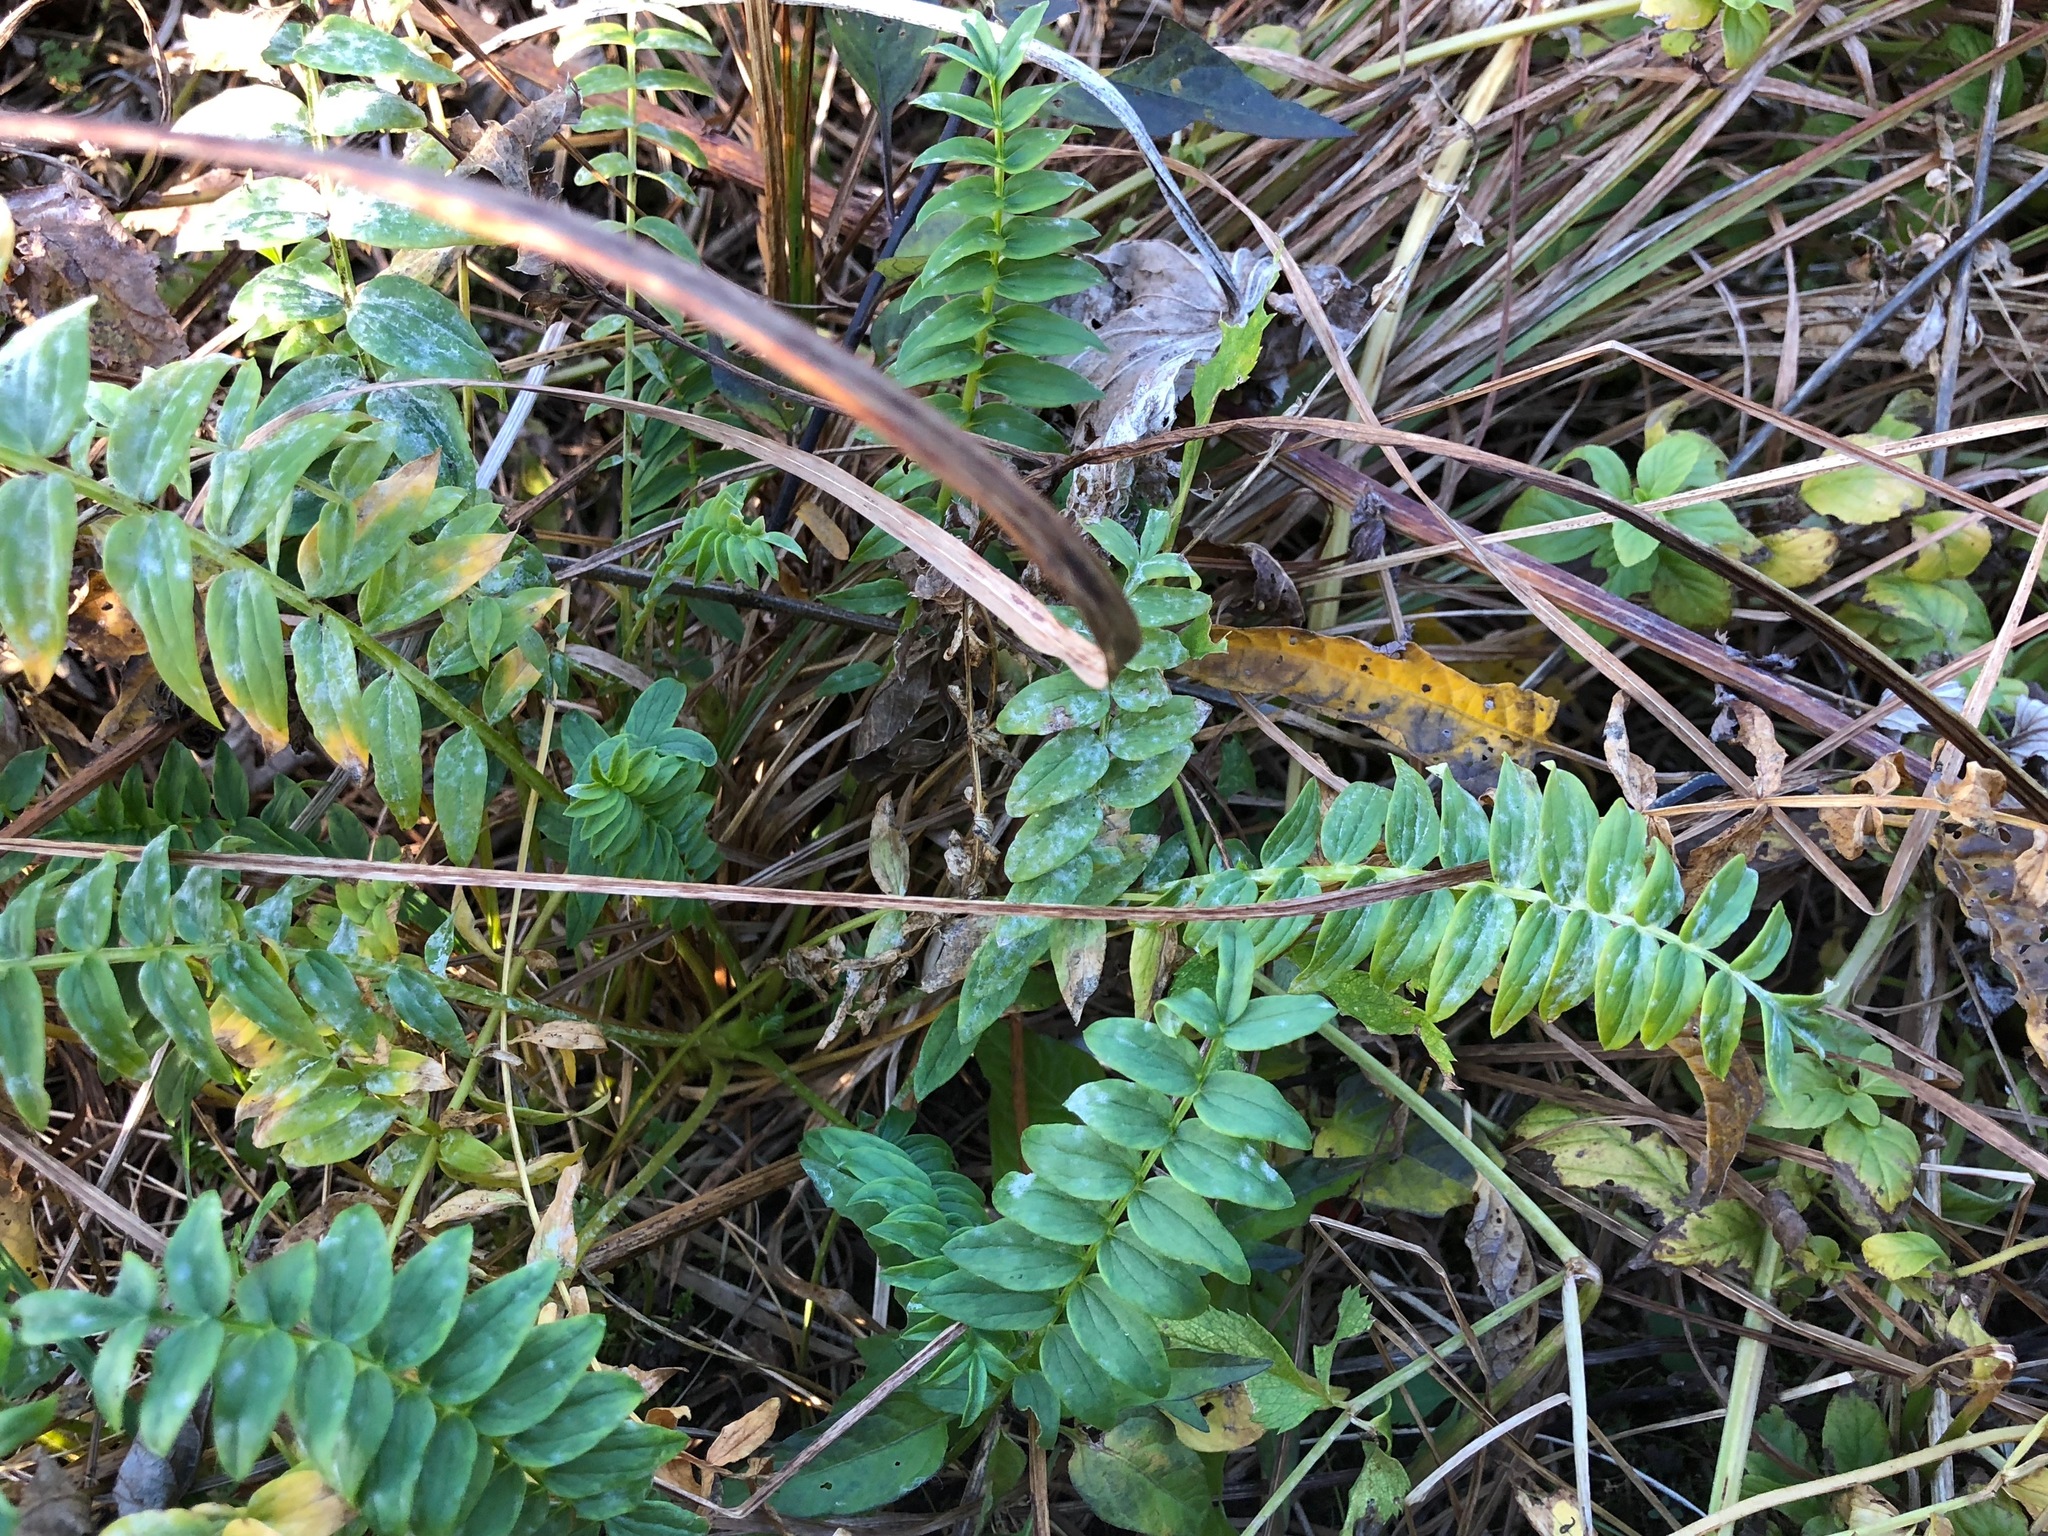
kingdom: Plantae
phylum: Tracheophyta
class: Magnoliopsida
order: Ericales
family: Polemoniaceae
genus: Polemonium
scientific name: Polemonium caeruleum
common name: Jacob's-ladder
